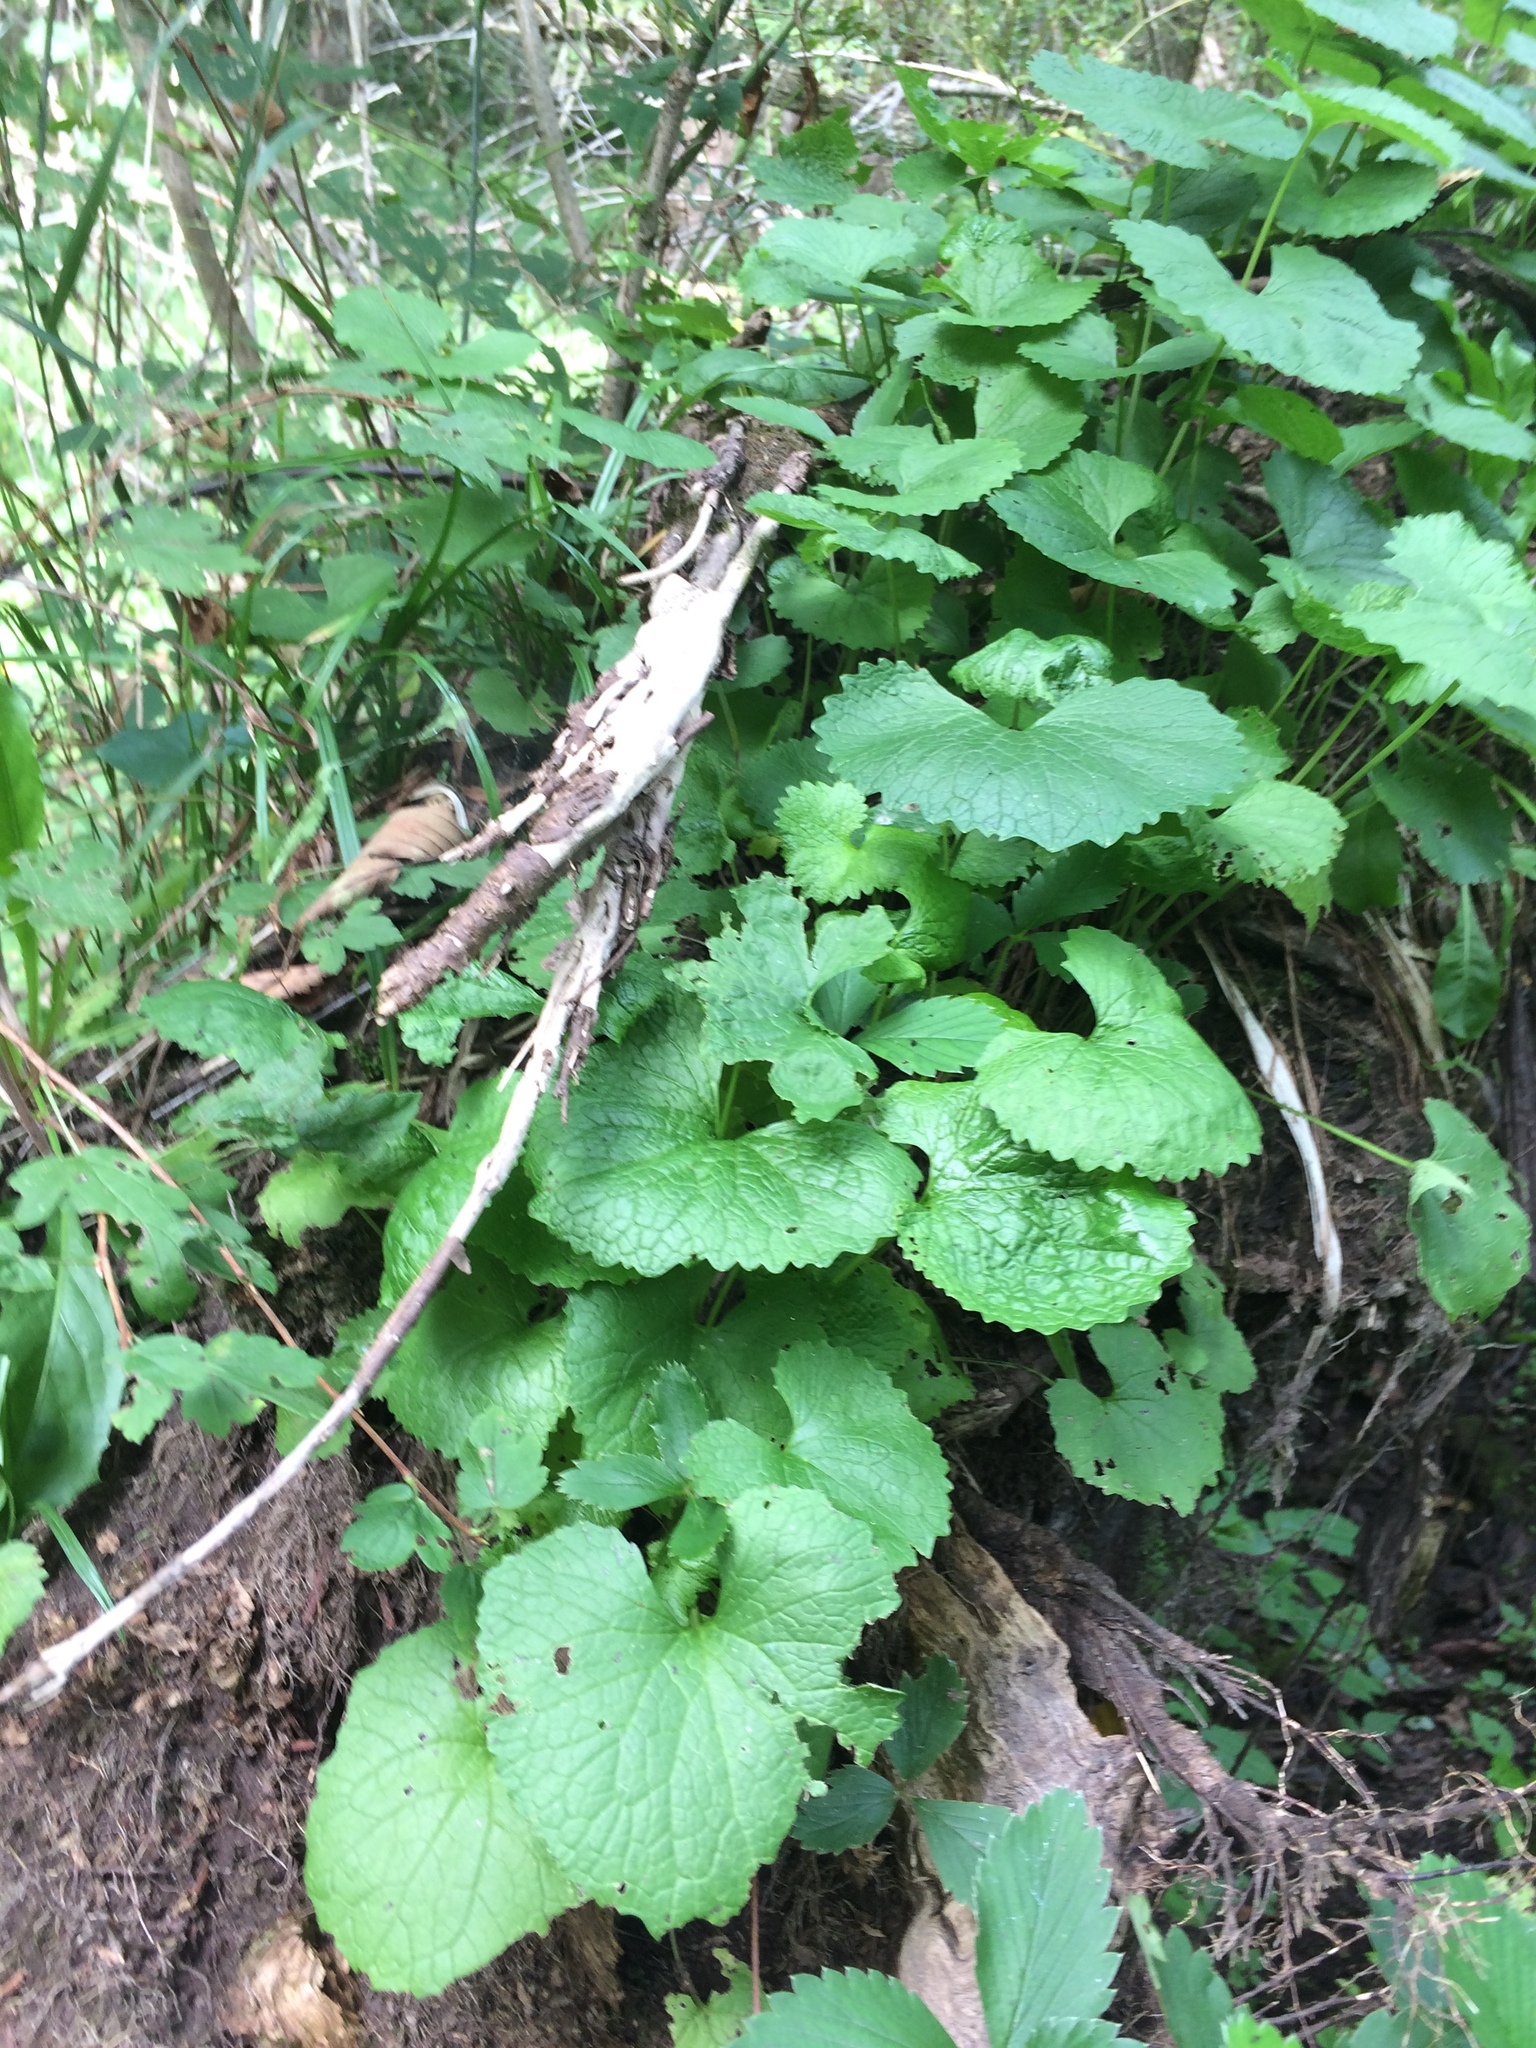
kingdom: Plantae
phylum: Tracheophyta
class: Magnoliopsida
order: Brassicales
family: Brassicaceae
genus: Alliaria
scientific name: Alliaria petiolata
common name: Garlic mustard
